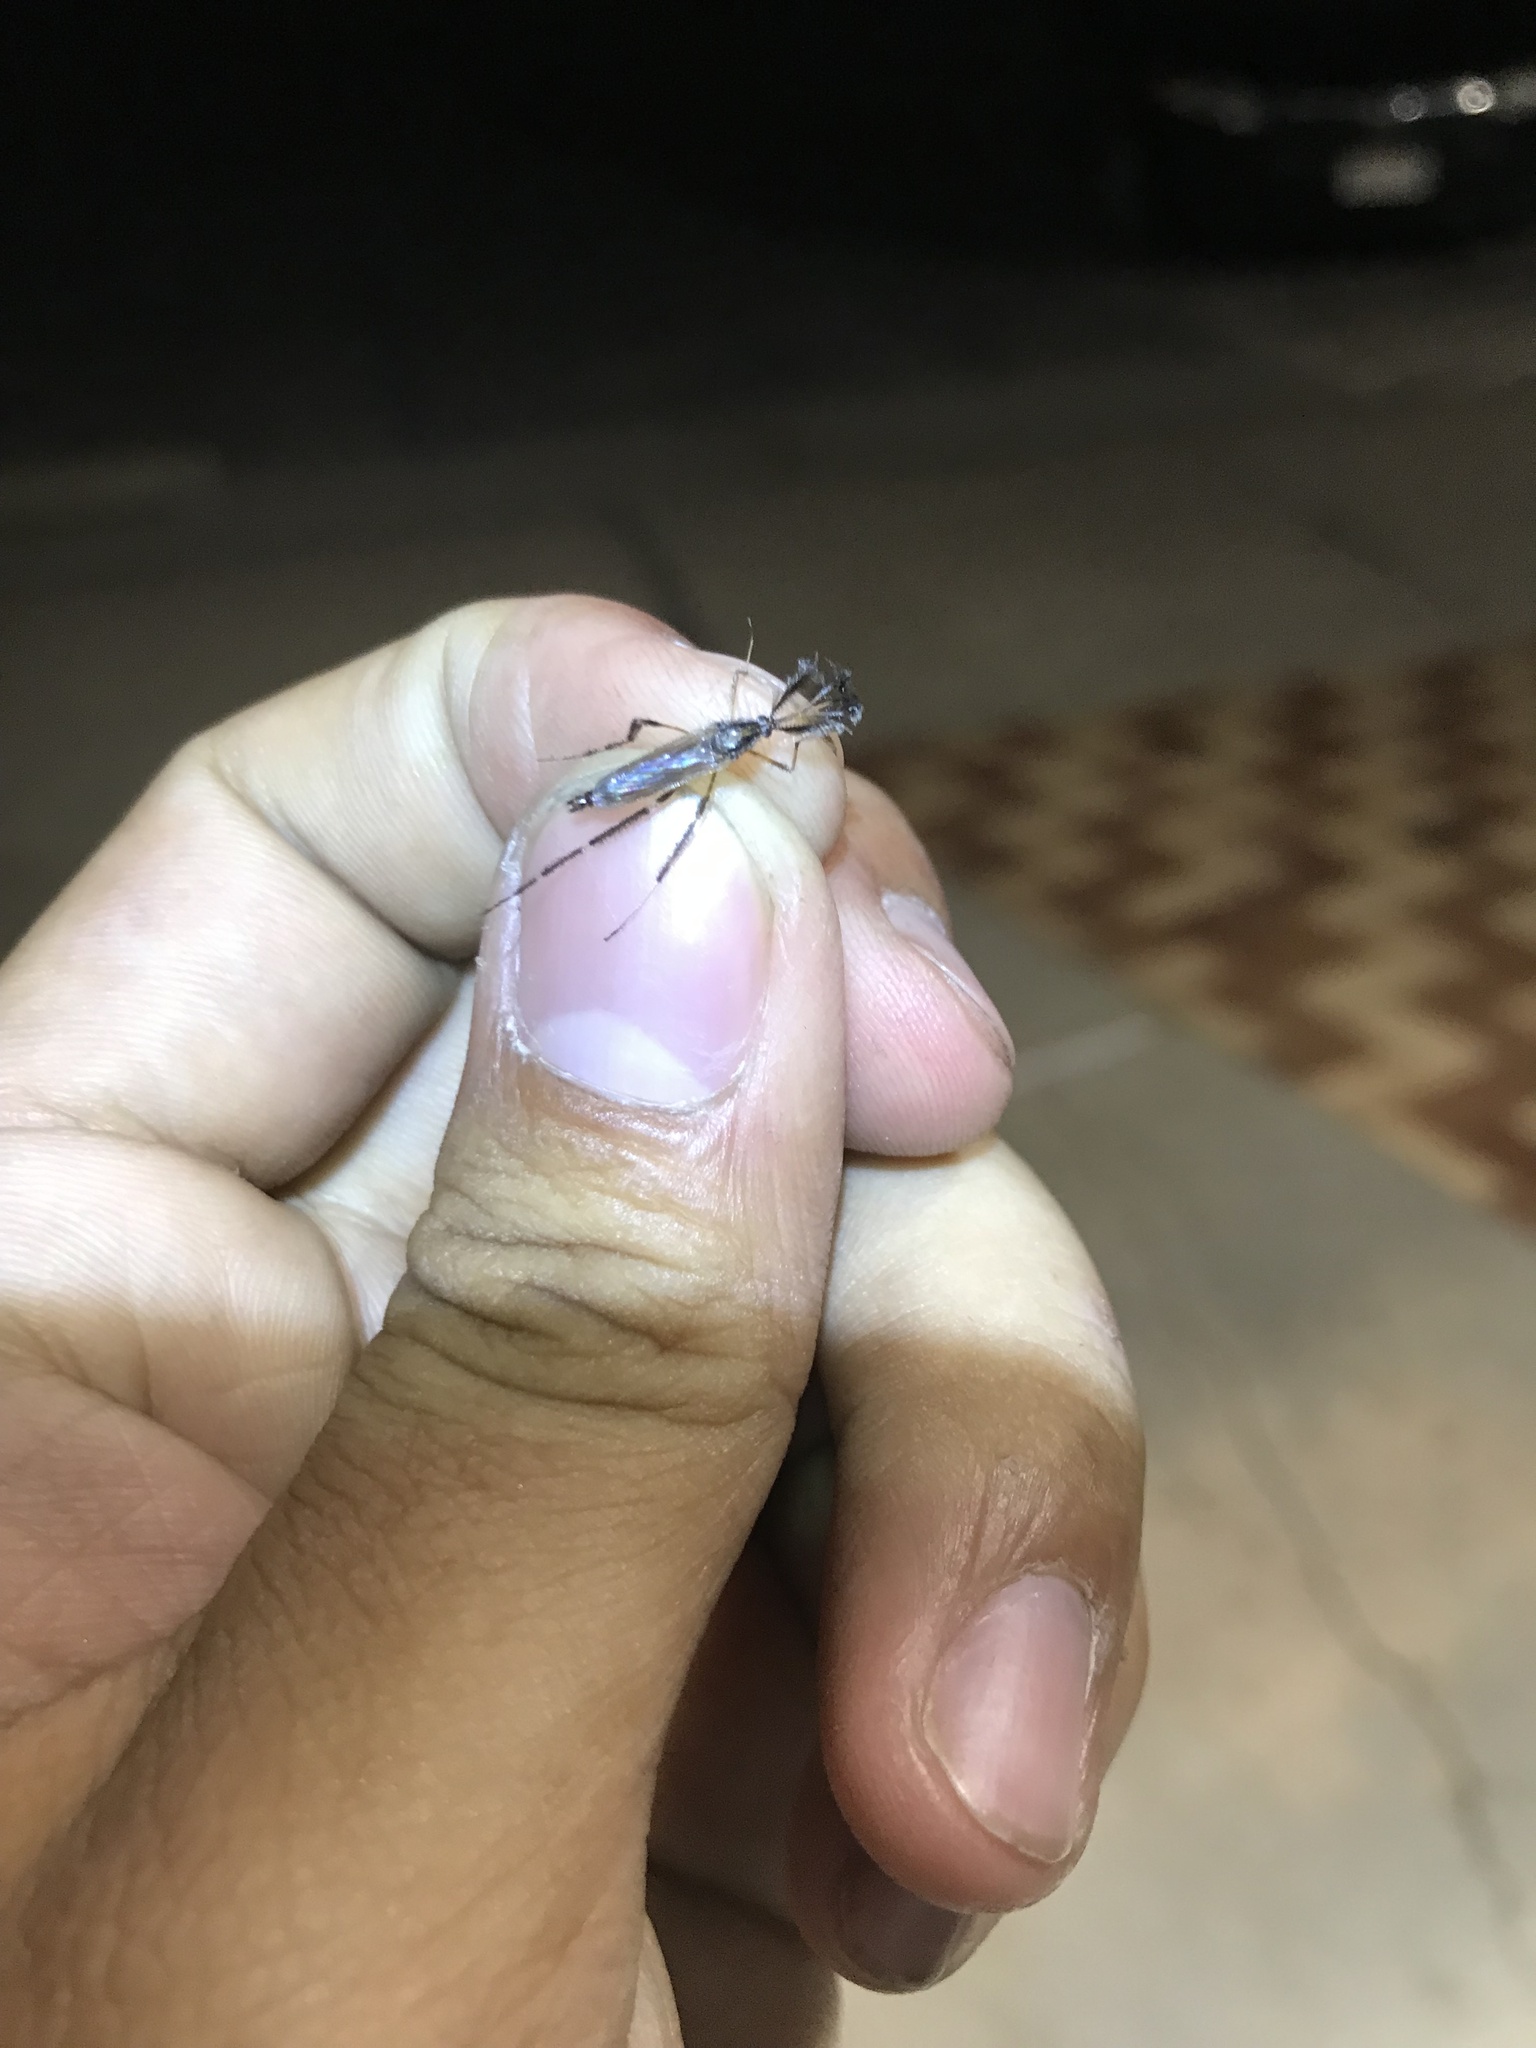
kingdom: Animalia
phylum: Arthropoda
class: Insecta
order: Diptera
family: Culicidae
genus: Psorophora
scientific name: Psorophora ciliata
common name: Gallinipper
